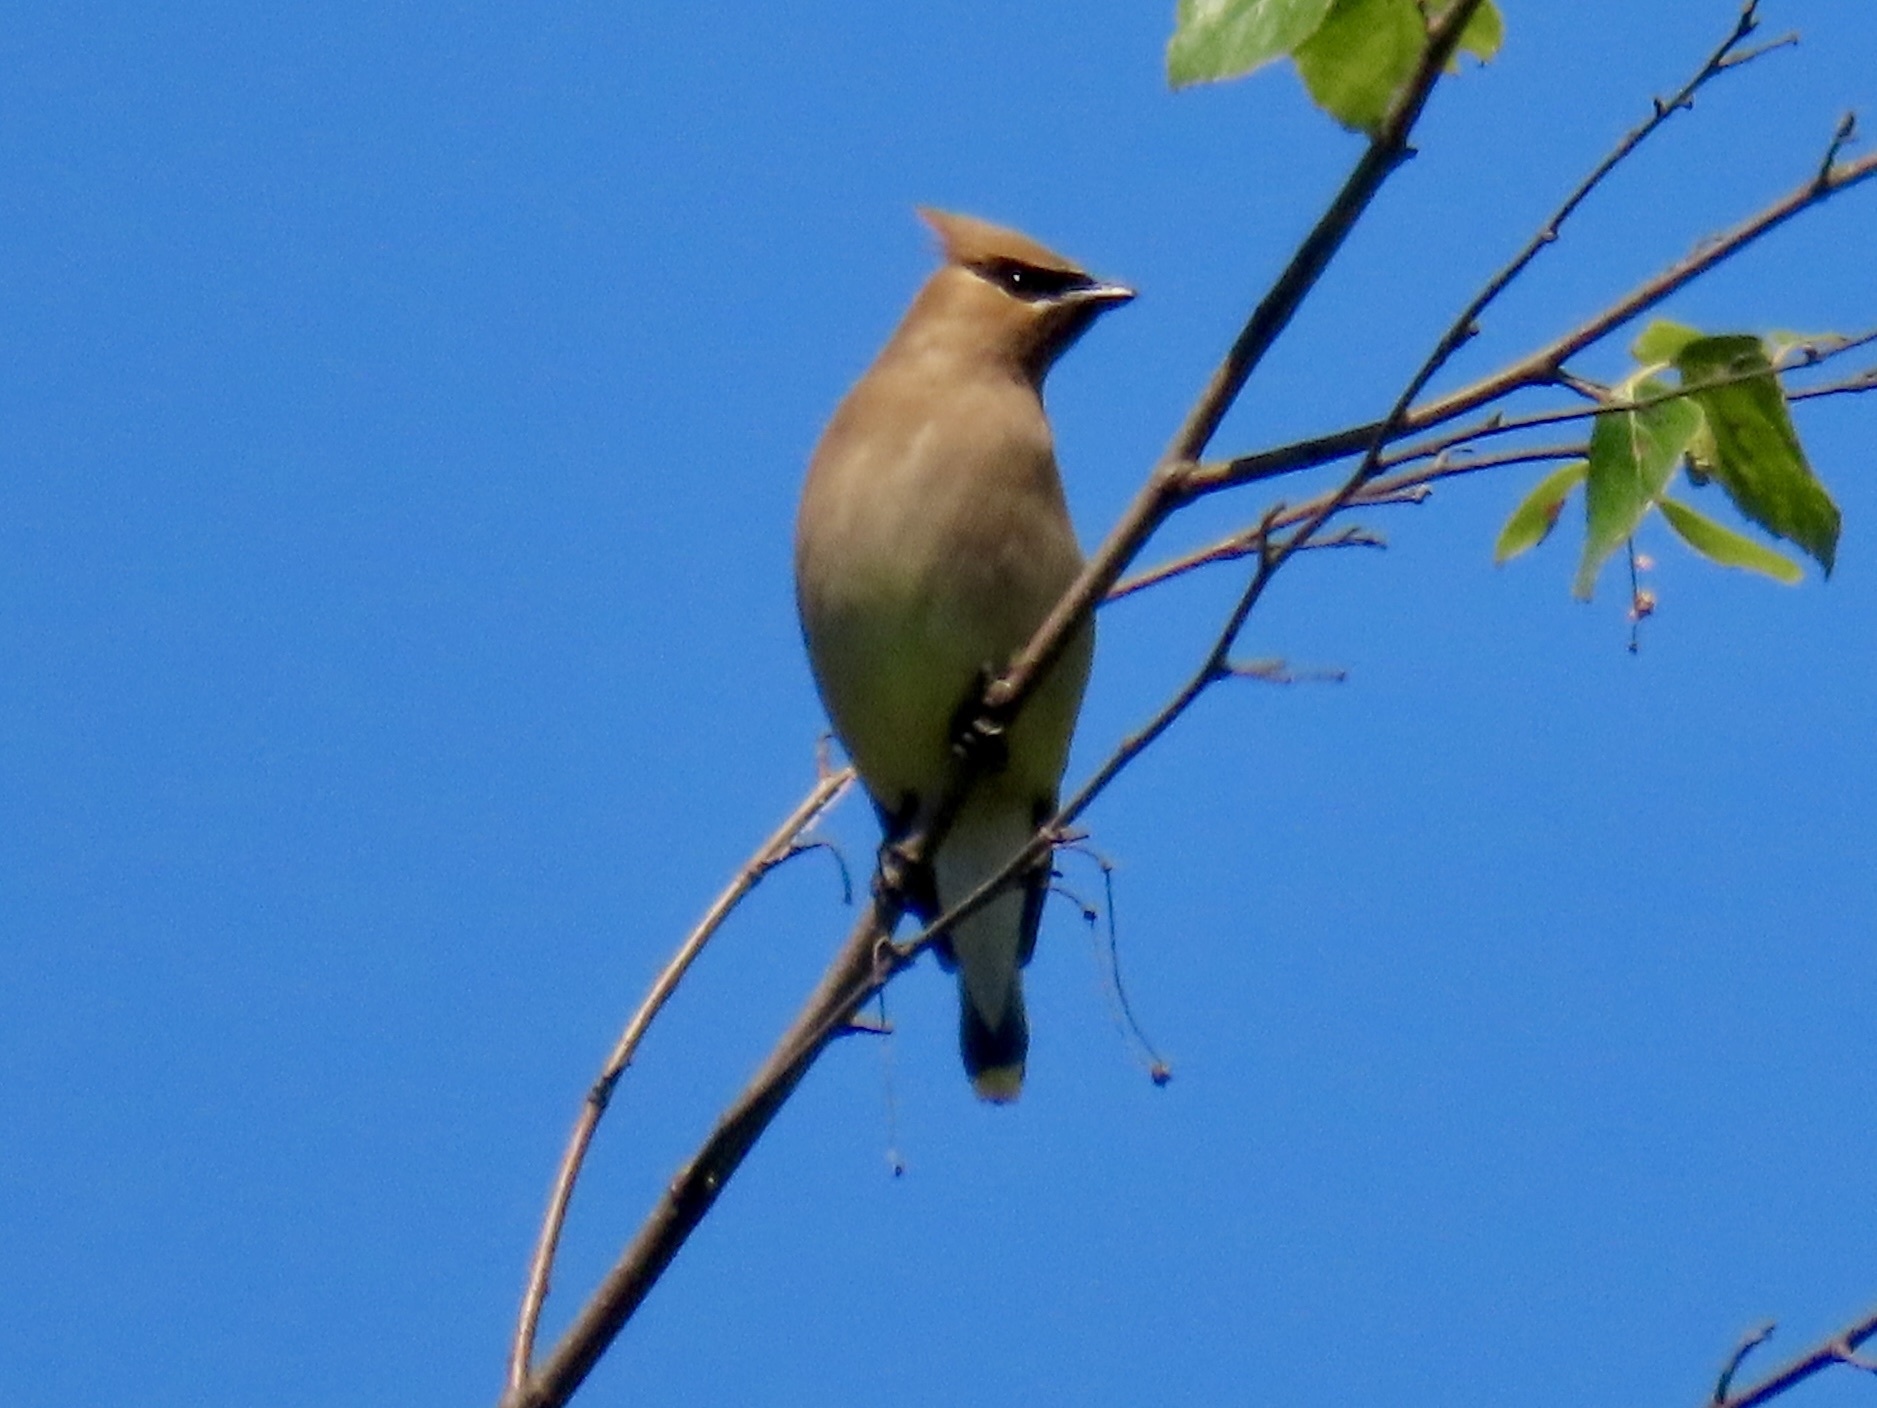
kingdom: Animalia
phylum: Chordata
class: Aves
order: Passeriformes
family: Bombycillidae
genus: Bombycilla
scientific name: Bombycilla cedrorum
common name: Cedar waxwing
